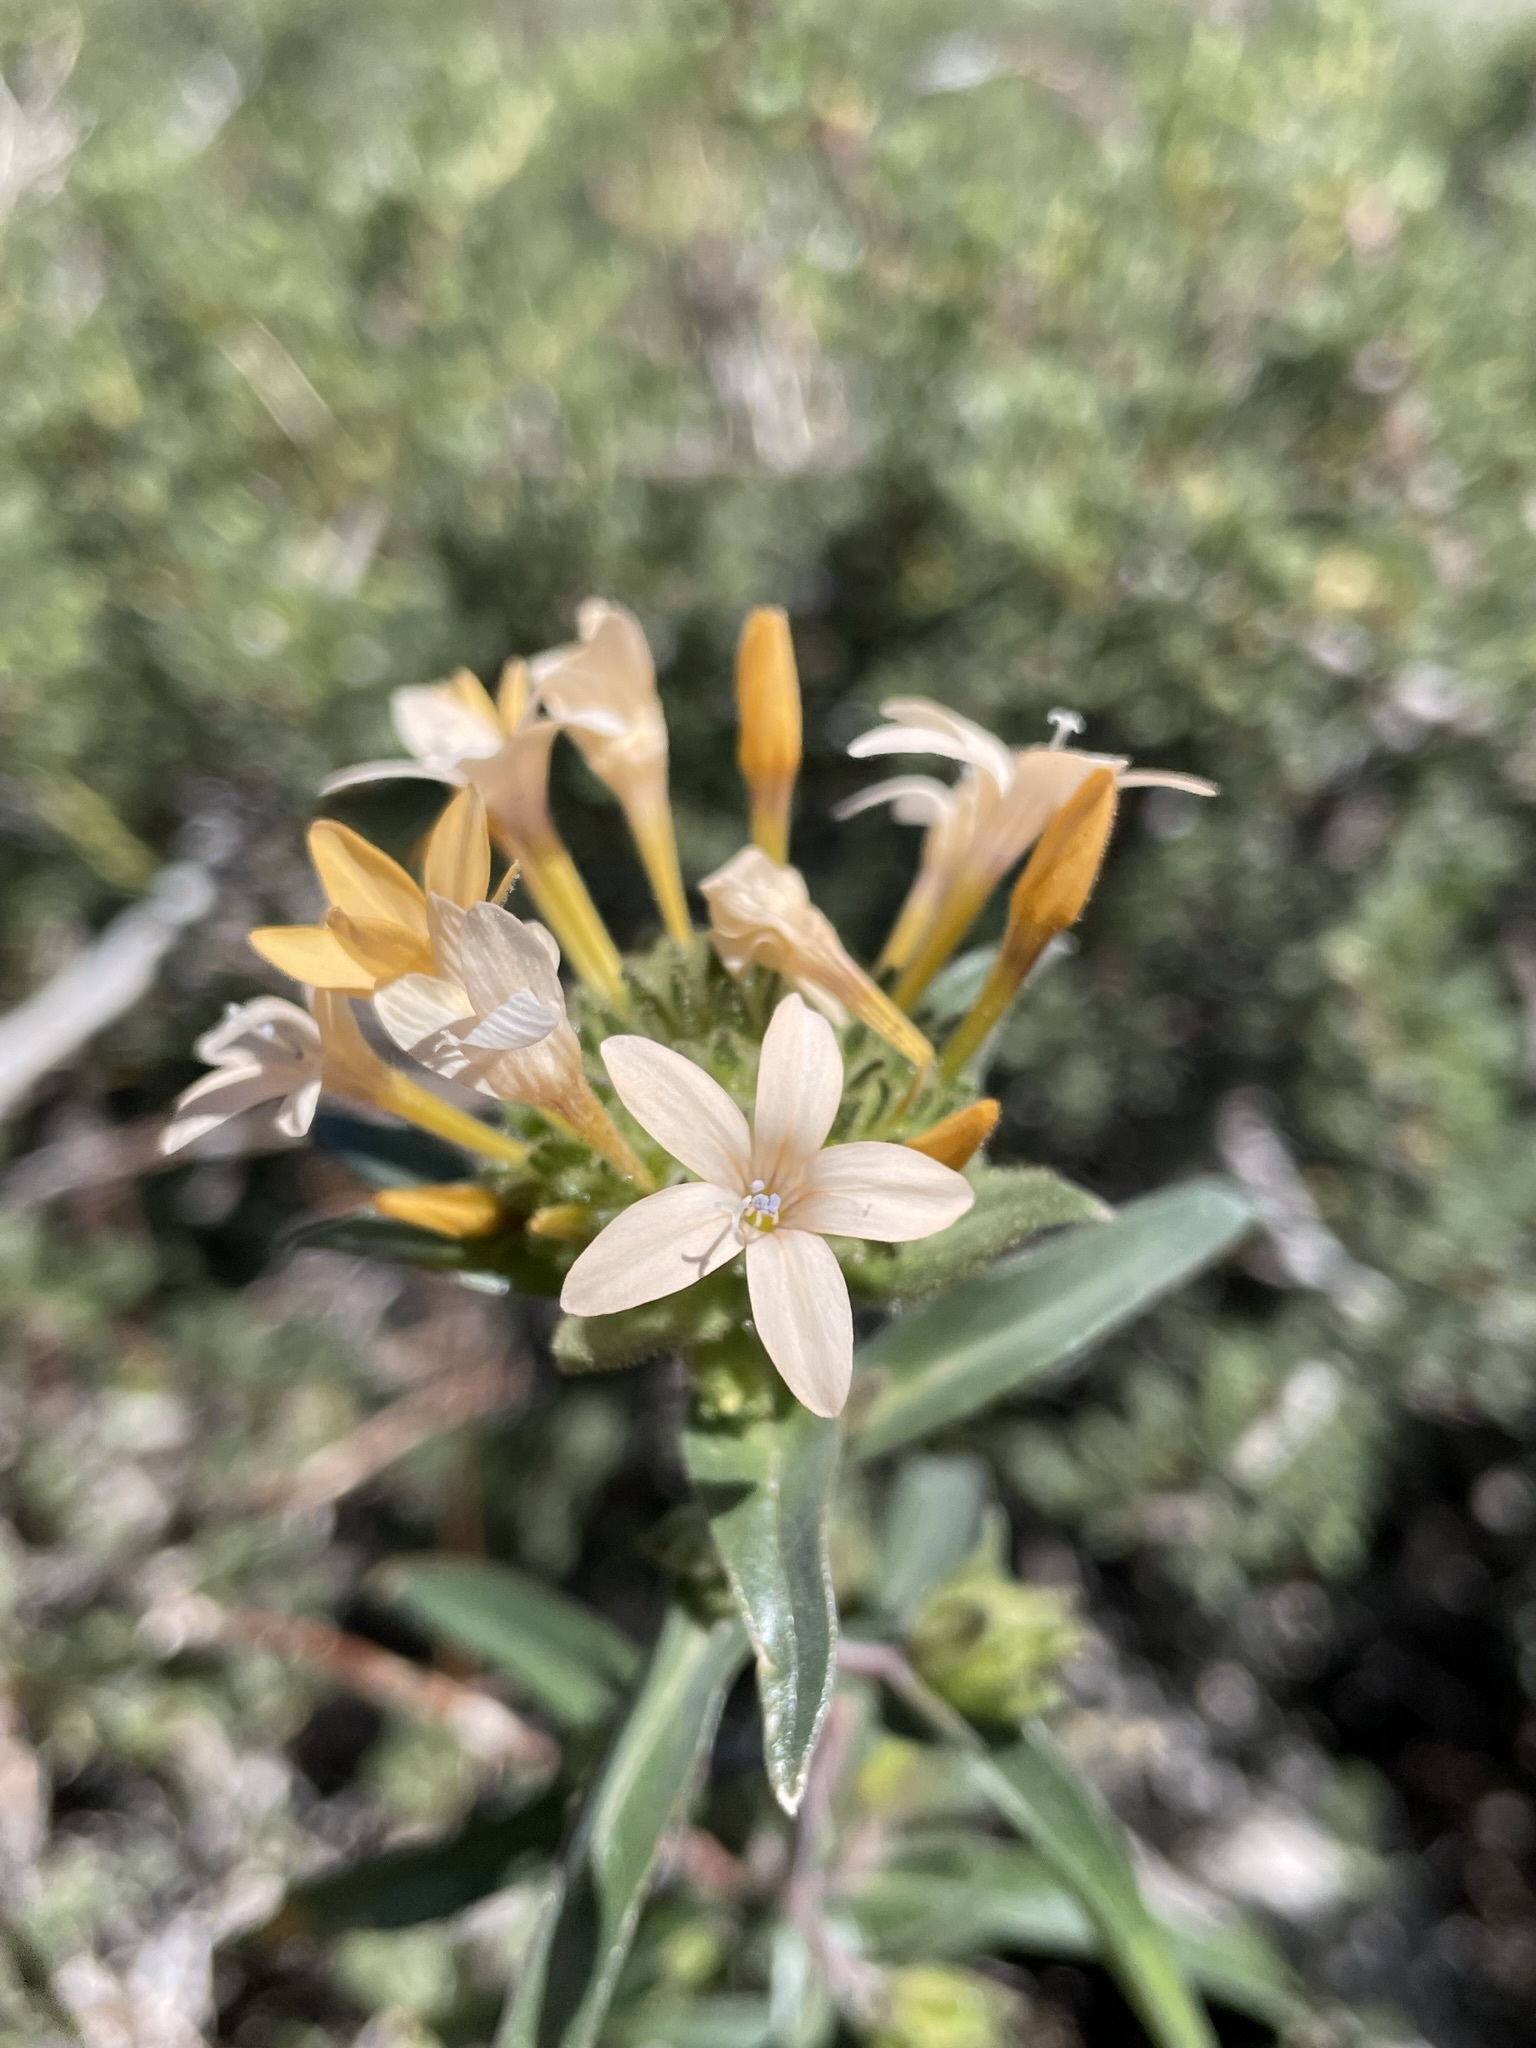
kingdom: Plantae
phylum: Tracheophyta
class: Magnoliopsida
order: Ericales
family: Polemoniaceae
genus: Collomia
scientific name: Collomia grandiflora
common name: California strawflower
